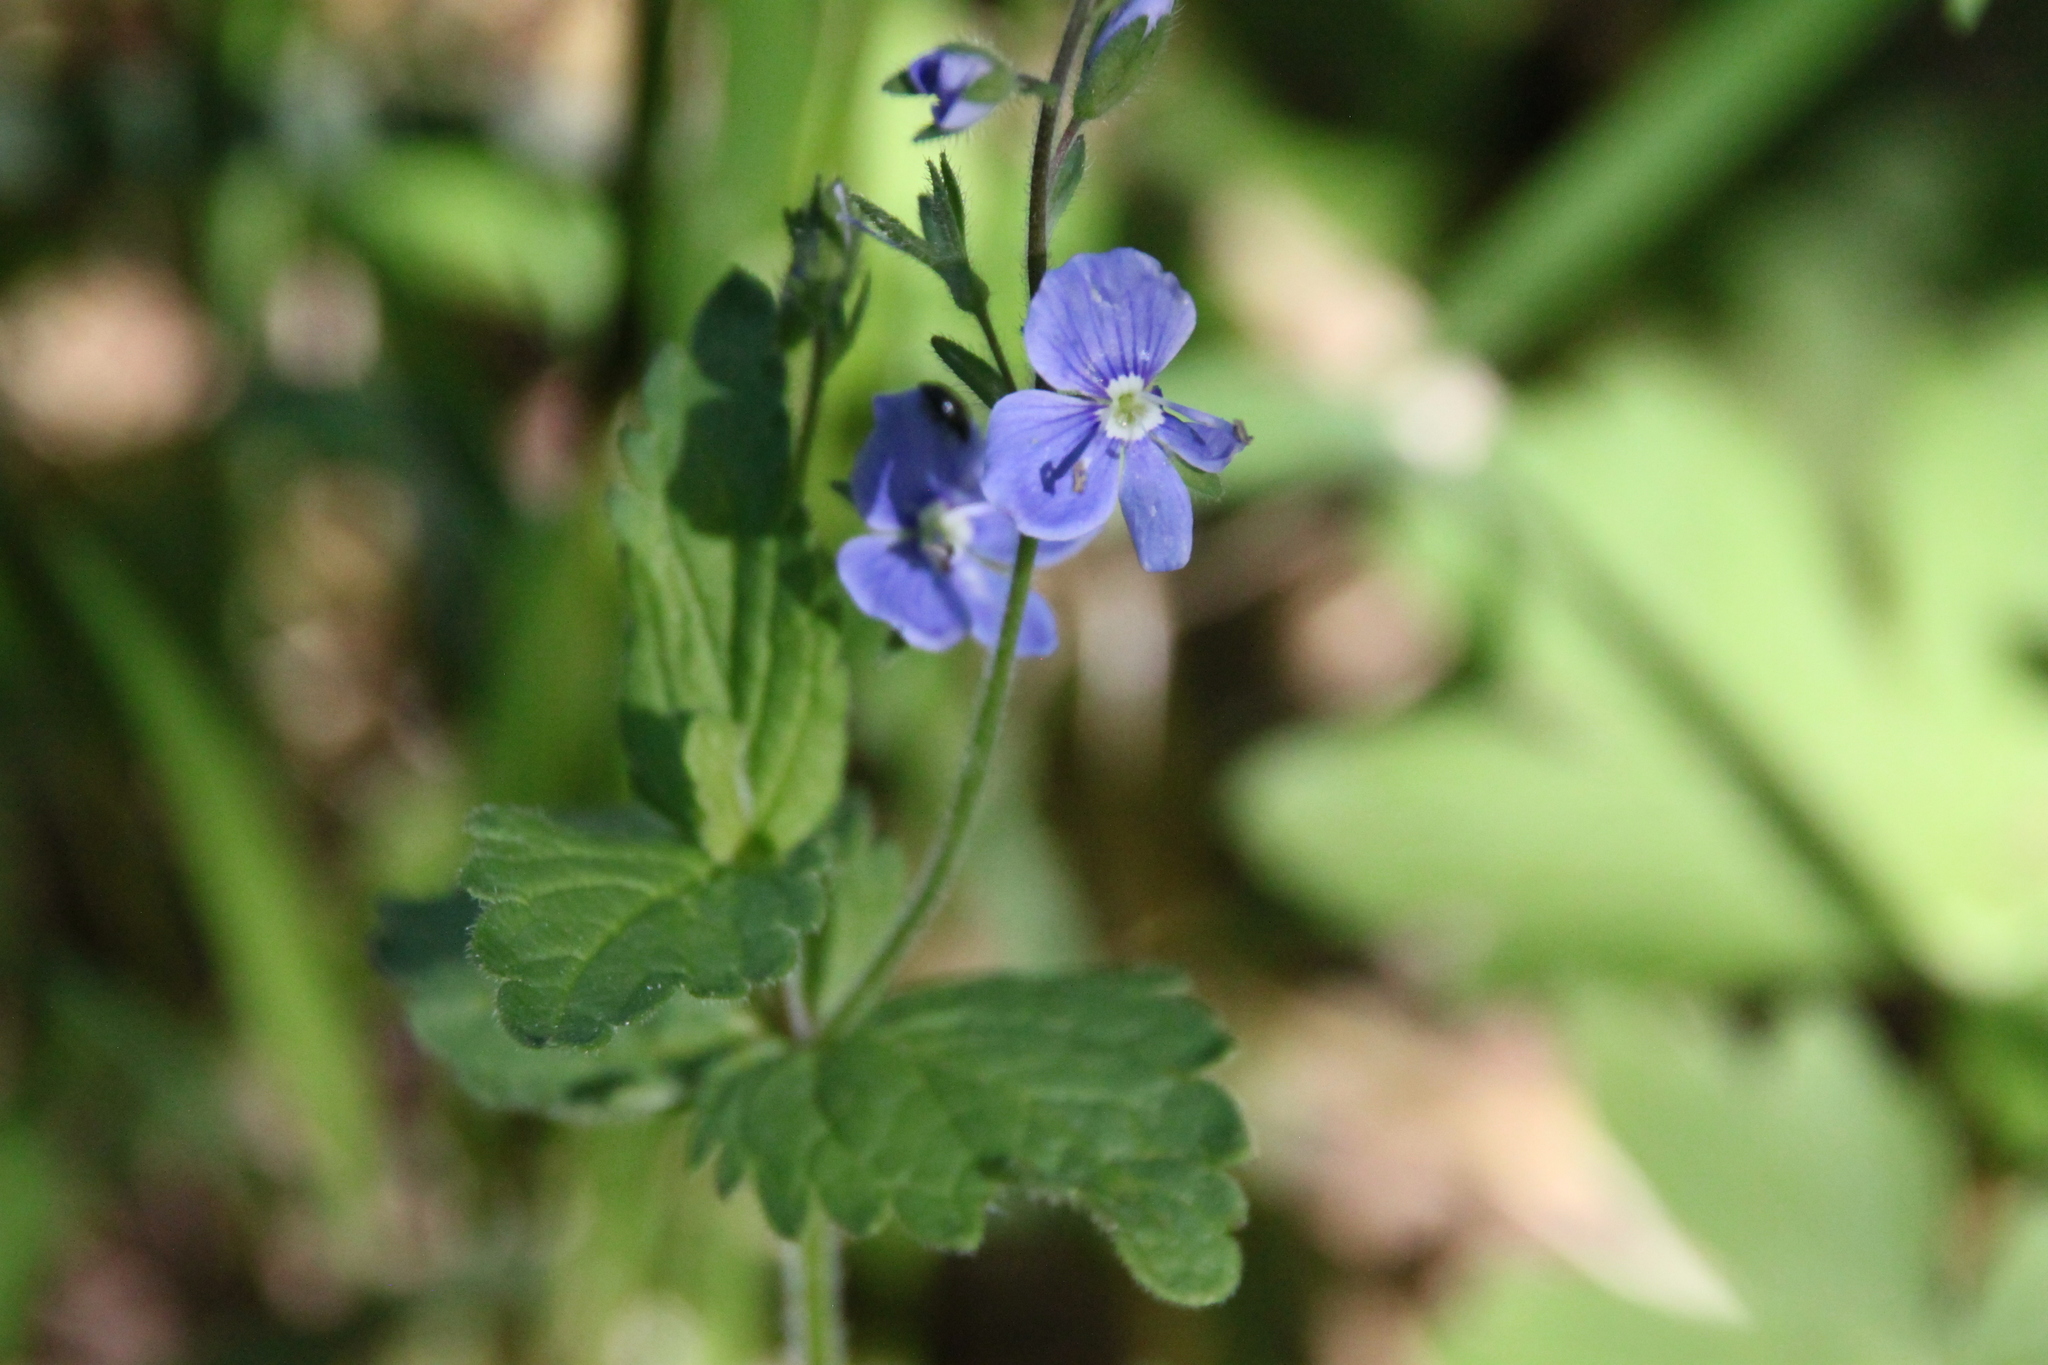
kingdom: Plantae
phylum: Tracheophyta
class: Magnoliopsida
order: Lamiales
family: Plantaginaceae
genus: Veronica
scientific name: Veronica chamaedrys
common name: Germander speedwell
